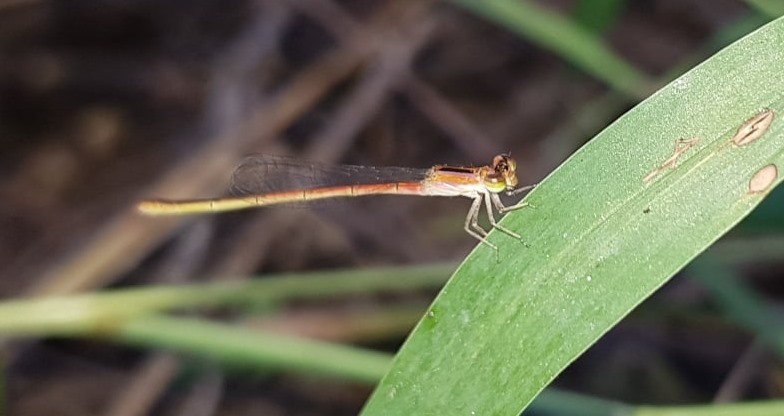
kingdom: Animalia
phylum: Arthropoda
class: Insecta
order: Odonata
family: Coenagrionidae
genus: Agriocnemis
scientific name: Agriocnemis pygmaea
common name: Pygmy wisp
